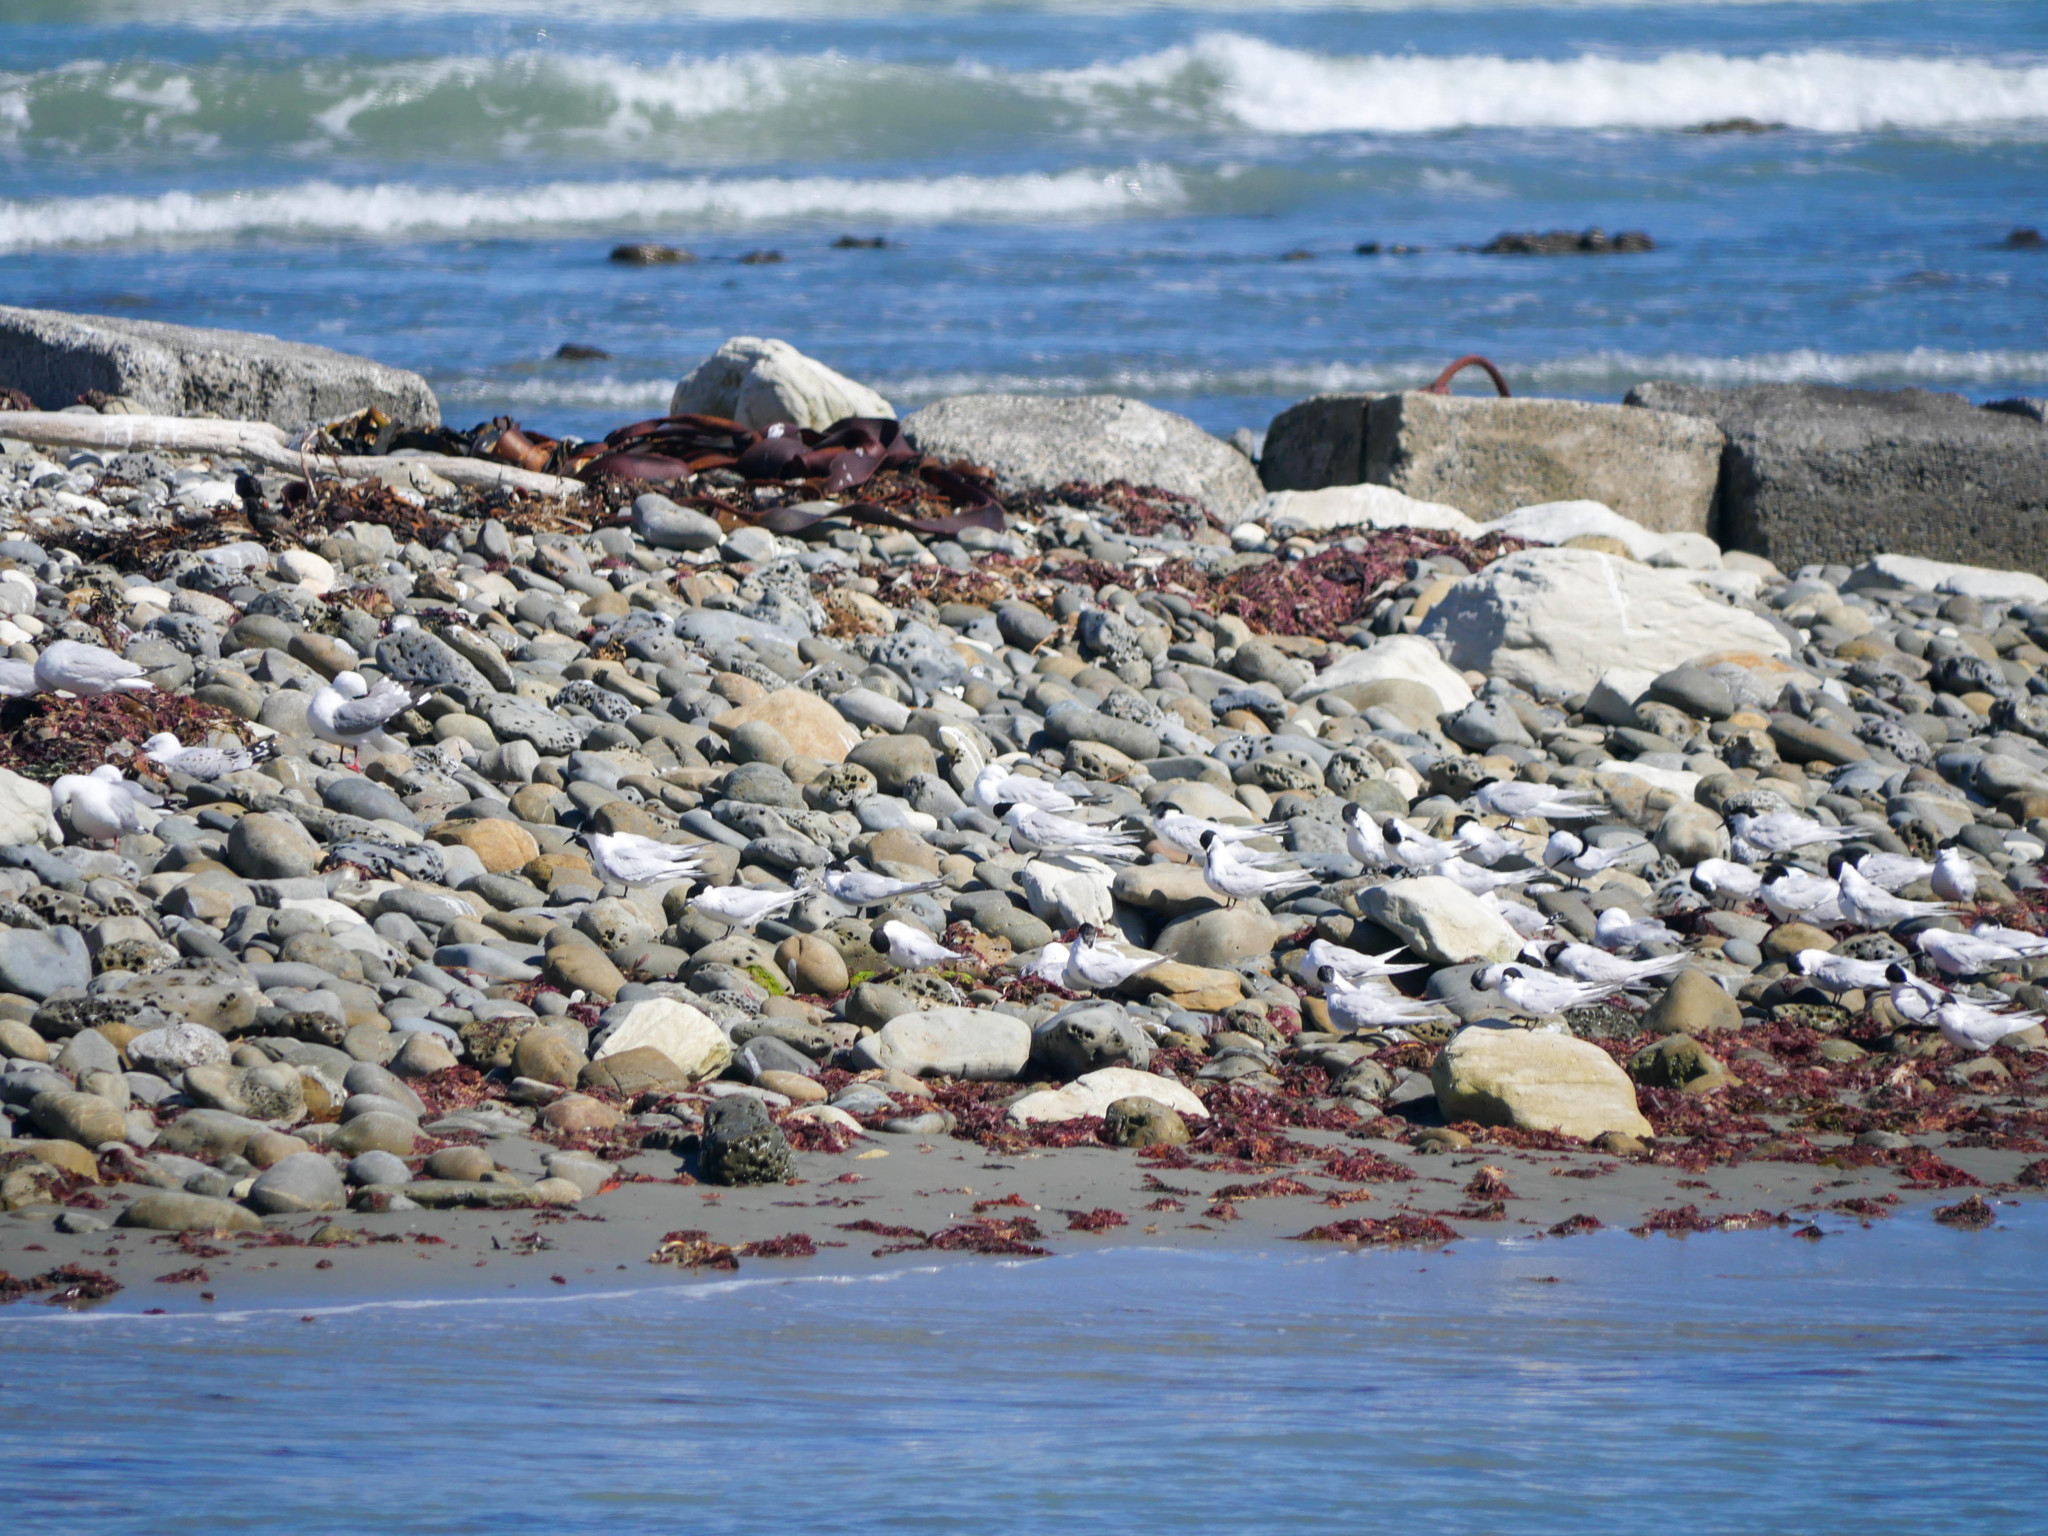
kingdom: Animalia
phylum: Chordata
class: Aves
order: Charadriiformes
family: Laridae
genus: Sterna
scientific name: Sterna striata
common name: White-fronted tern
